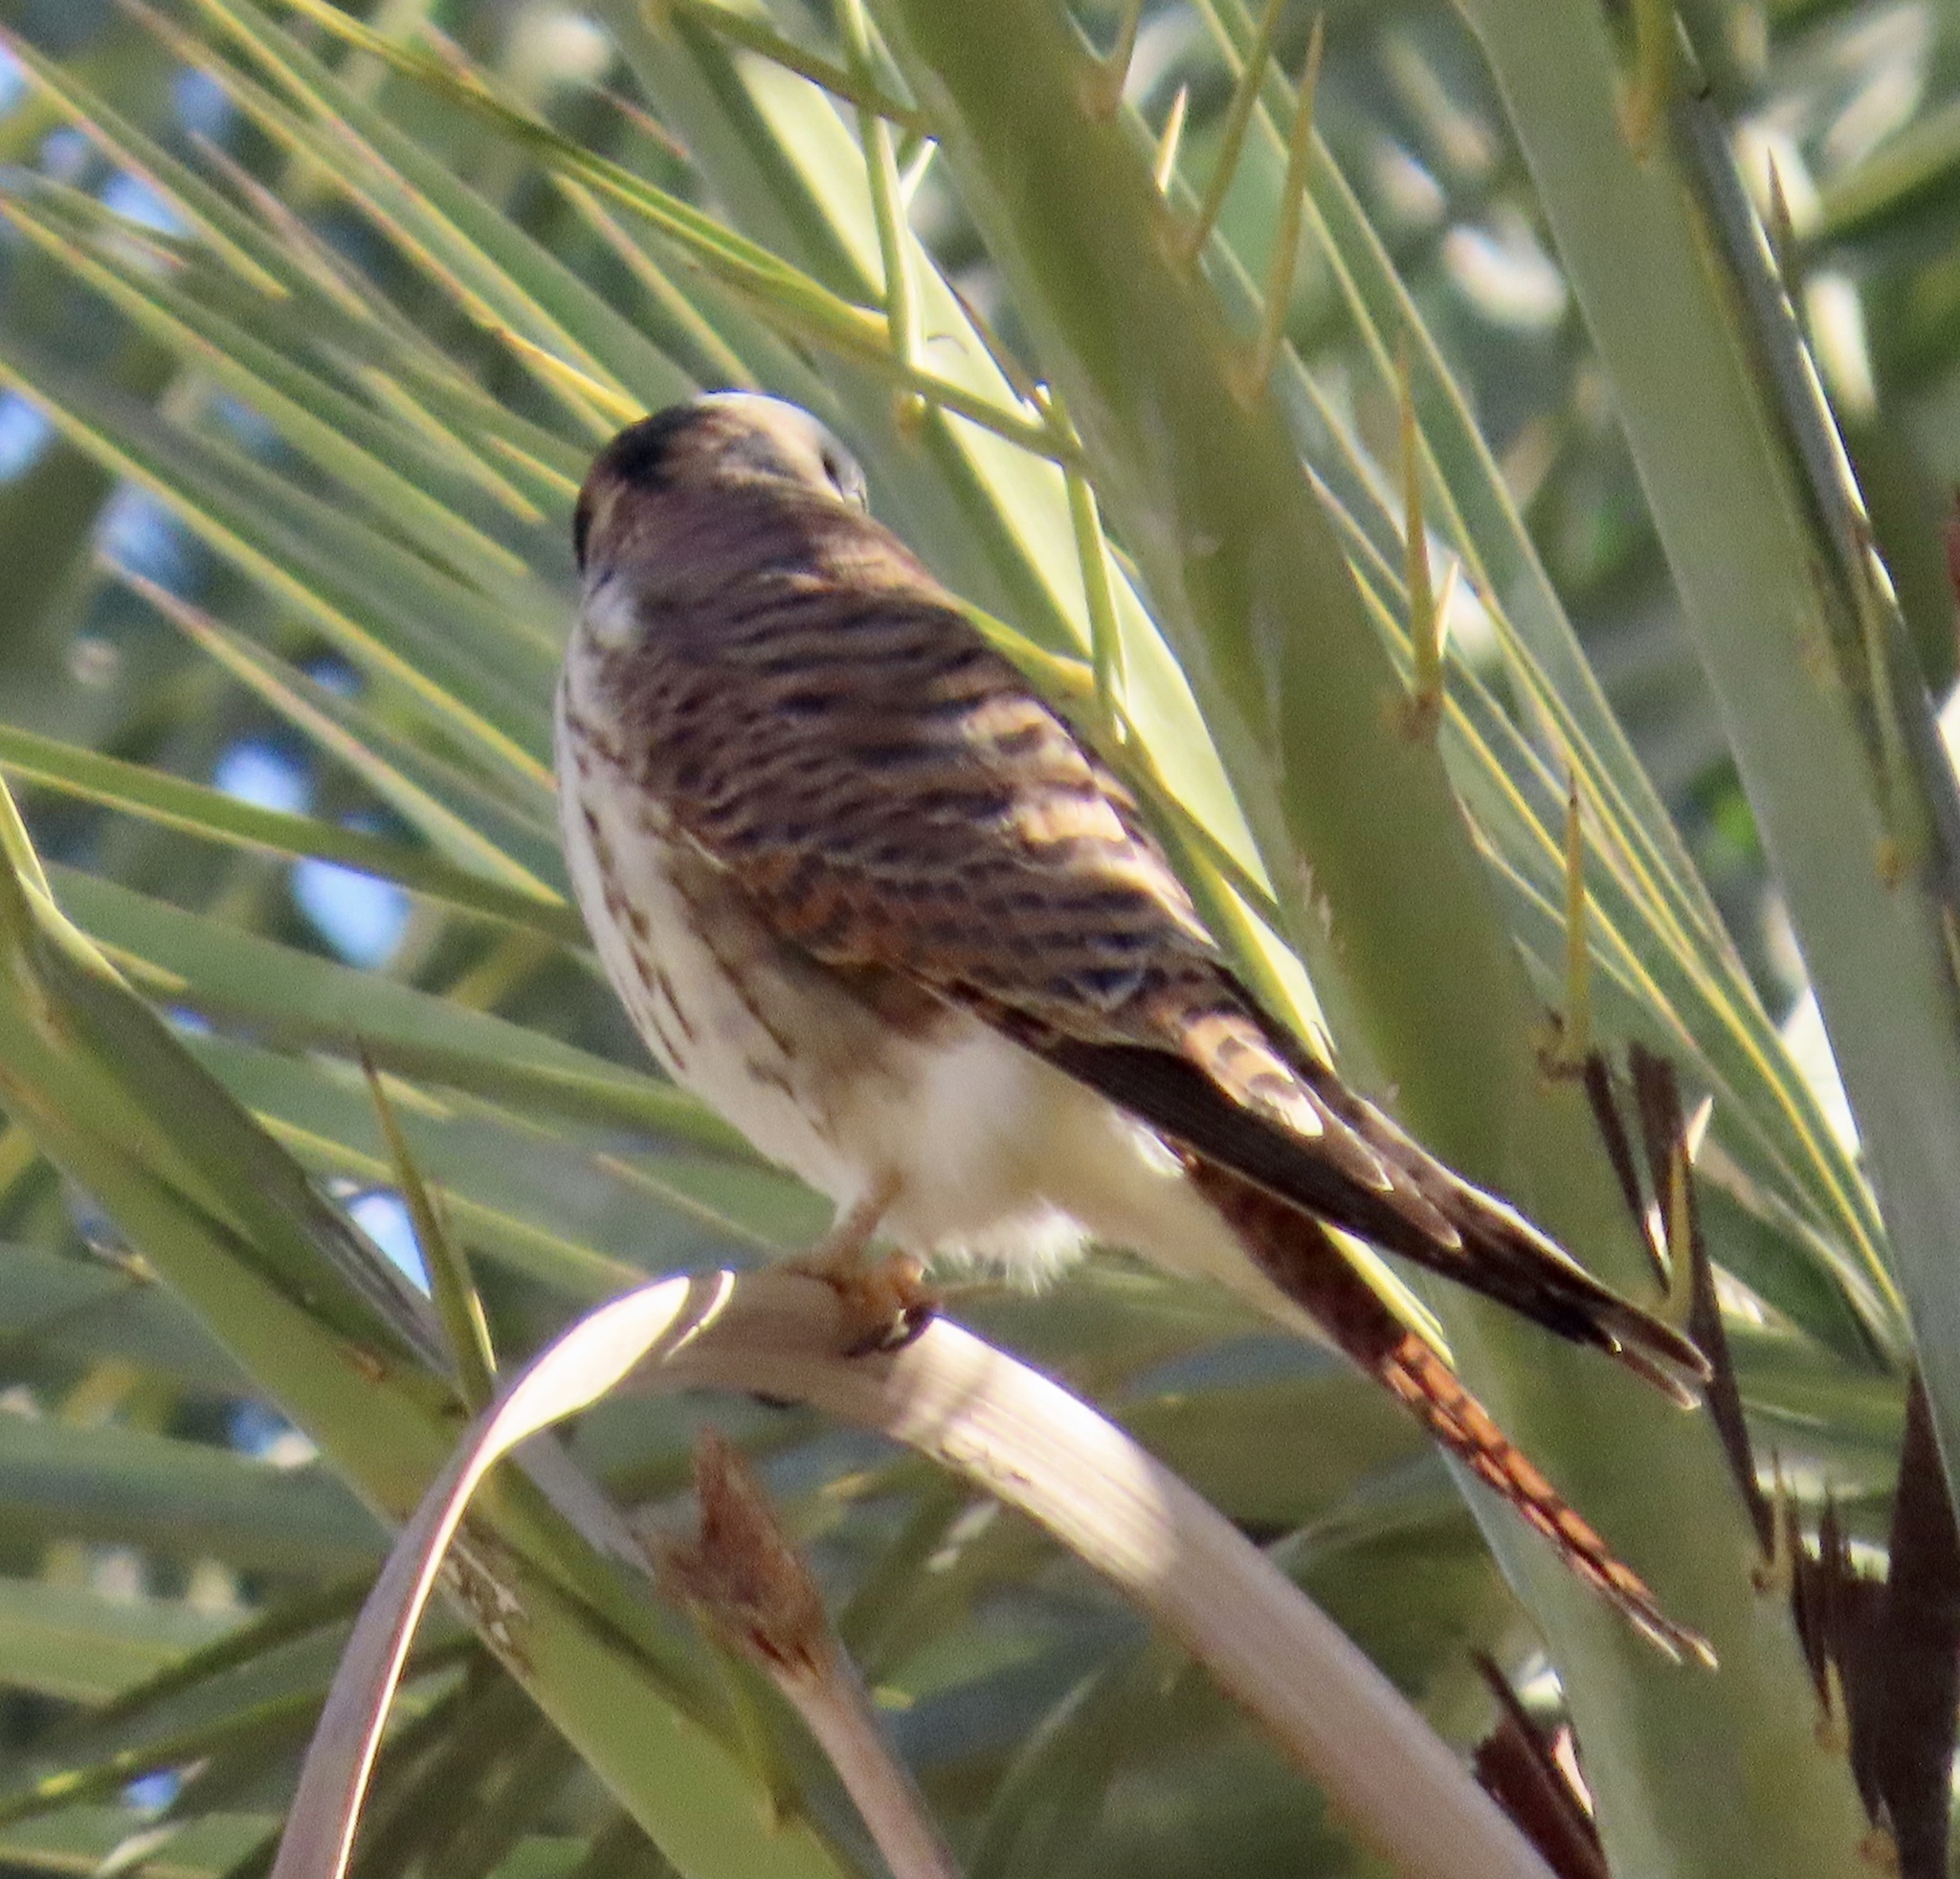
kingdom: Animalia
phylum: Chordata
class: Aves
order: Falconiformes
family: Falconidae
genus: Falco
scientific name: Falco sparverius
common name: American kestrel
